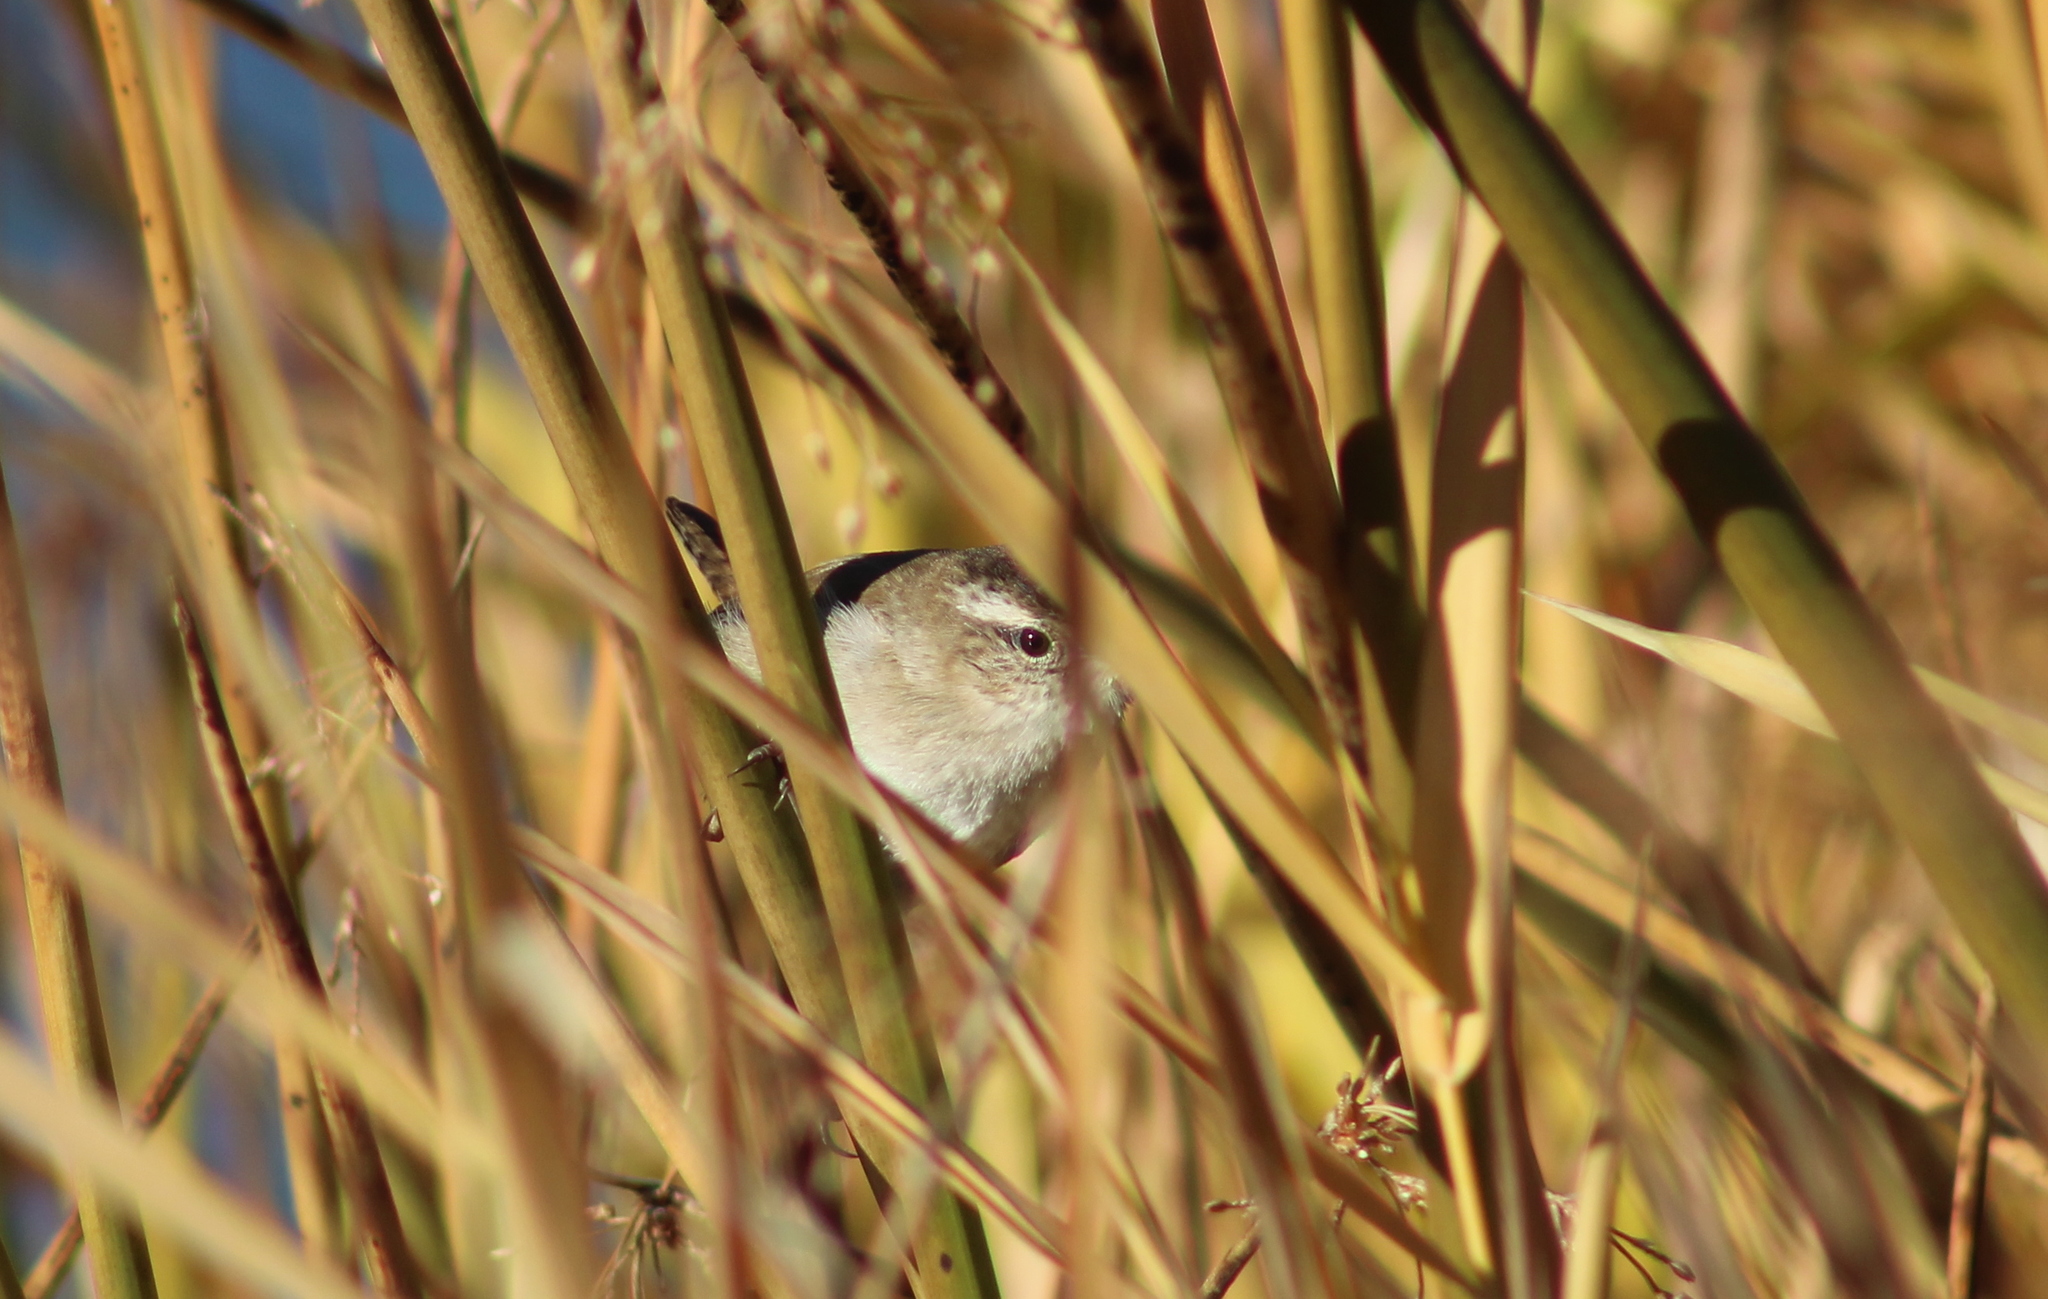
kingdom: Animalia
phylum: Chordata
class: Aves
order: Passeriformes
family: Troglodytidae
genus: Cistothorus
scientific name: Cistothorus palustris
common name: Marsh wren
